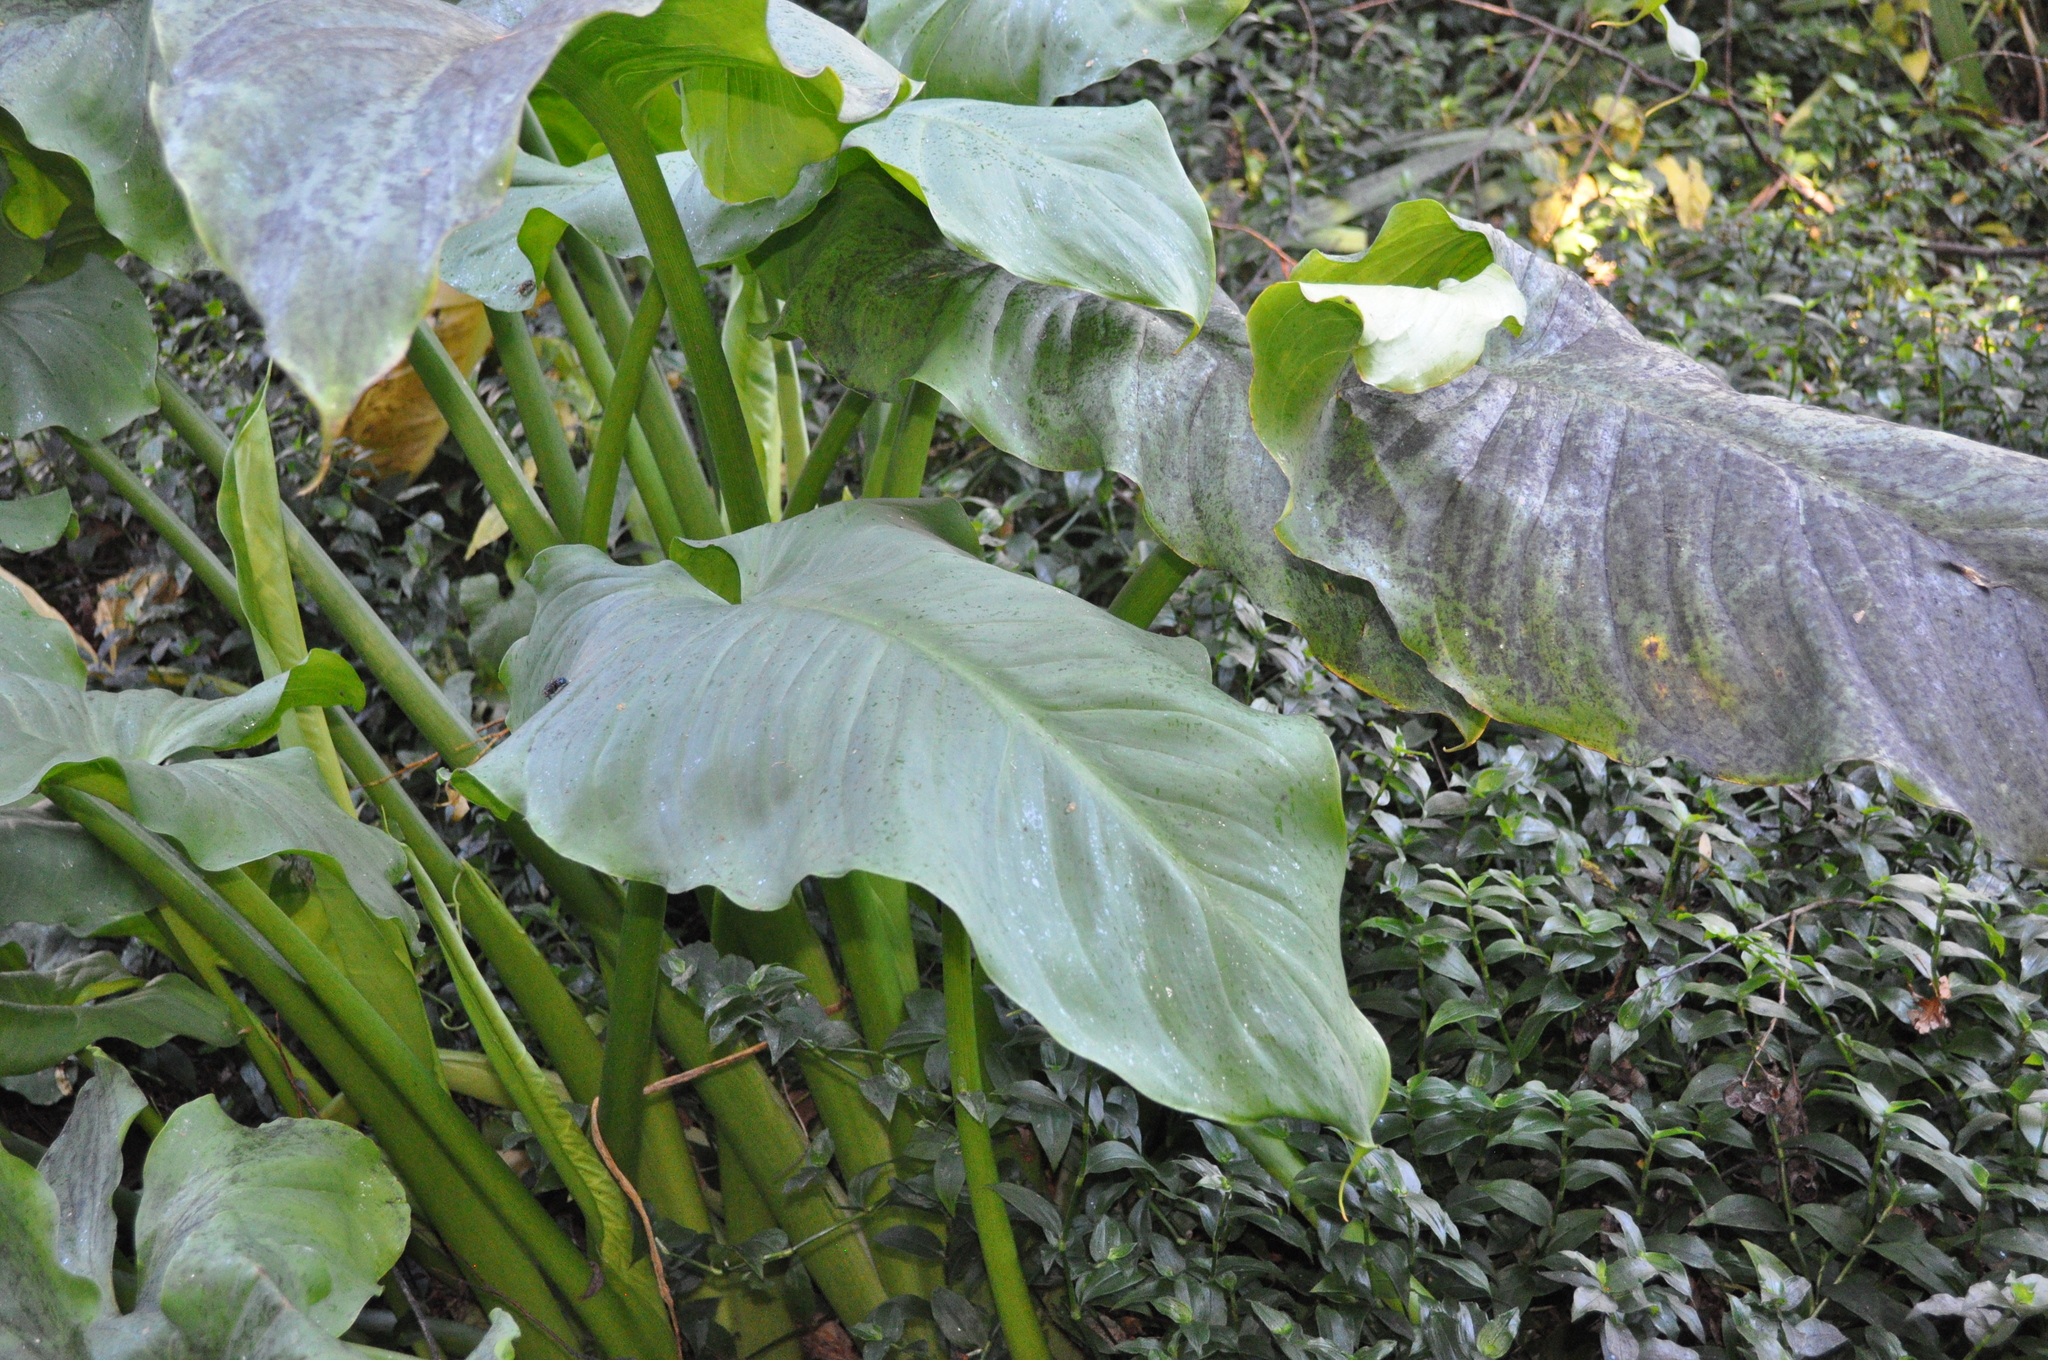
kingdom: Plantae
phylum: Tracheophyta
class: Liliopsida
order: Alismatales
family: Araceae
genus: Zantedeschia
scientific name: Zantedeschia aethiopica
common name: Altar-lily
